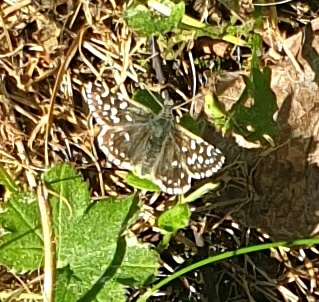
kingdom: Animalia
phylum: Arthropoda
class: Insecta
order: Lepidoptera
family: Hesperiidae
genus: Pyrgus
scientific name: Pyrgus malvae
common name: Grizzled skipper
